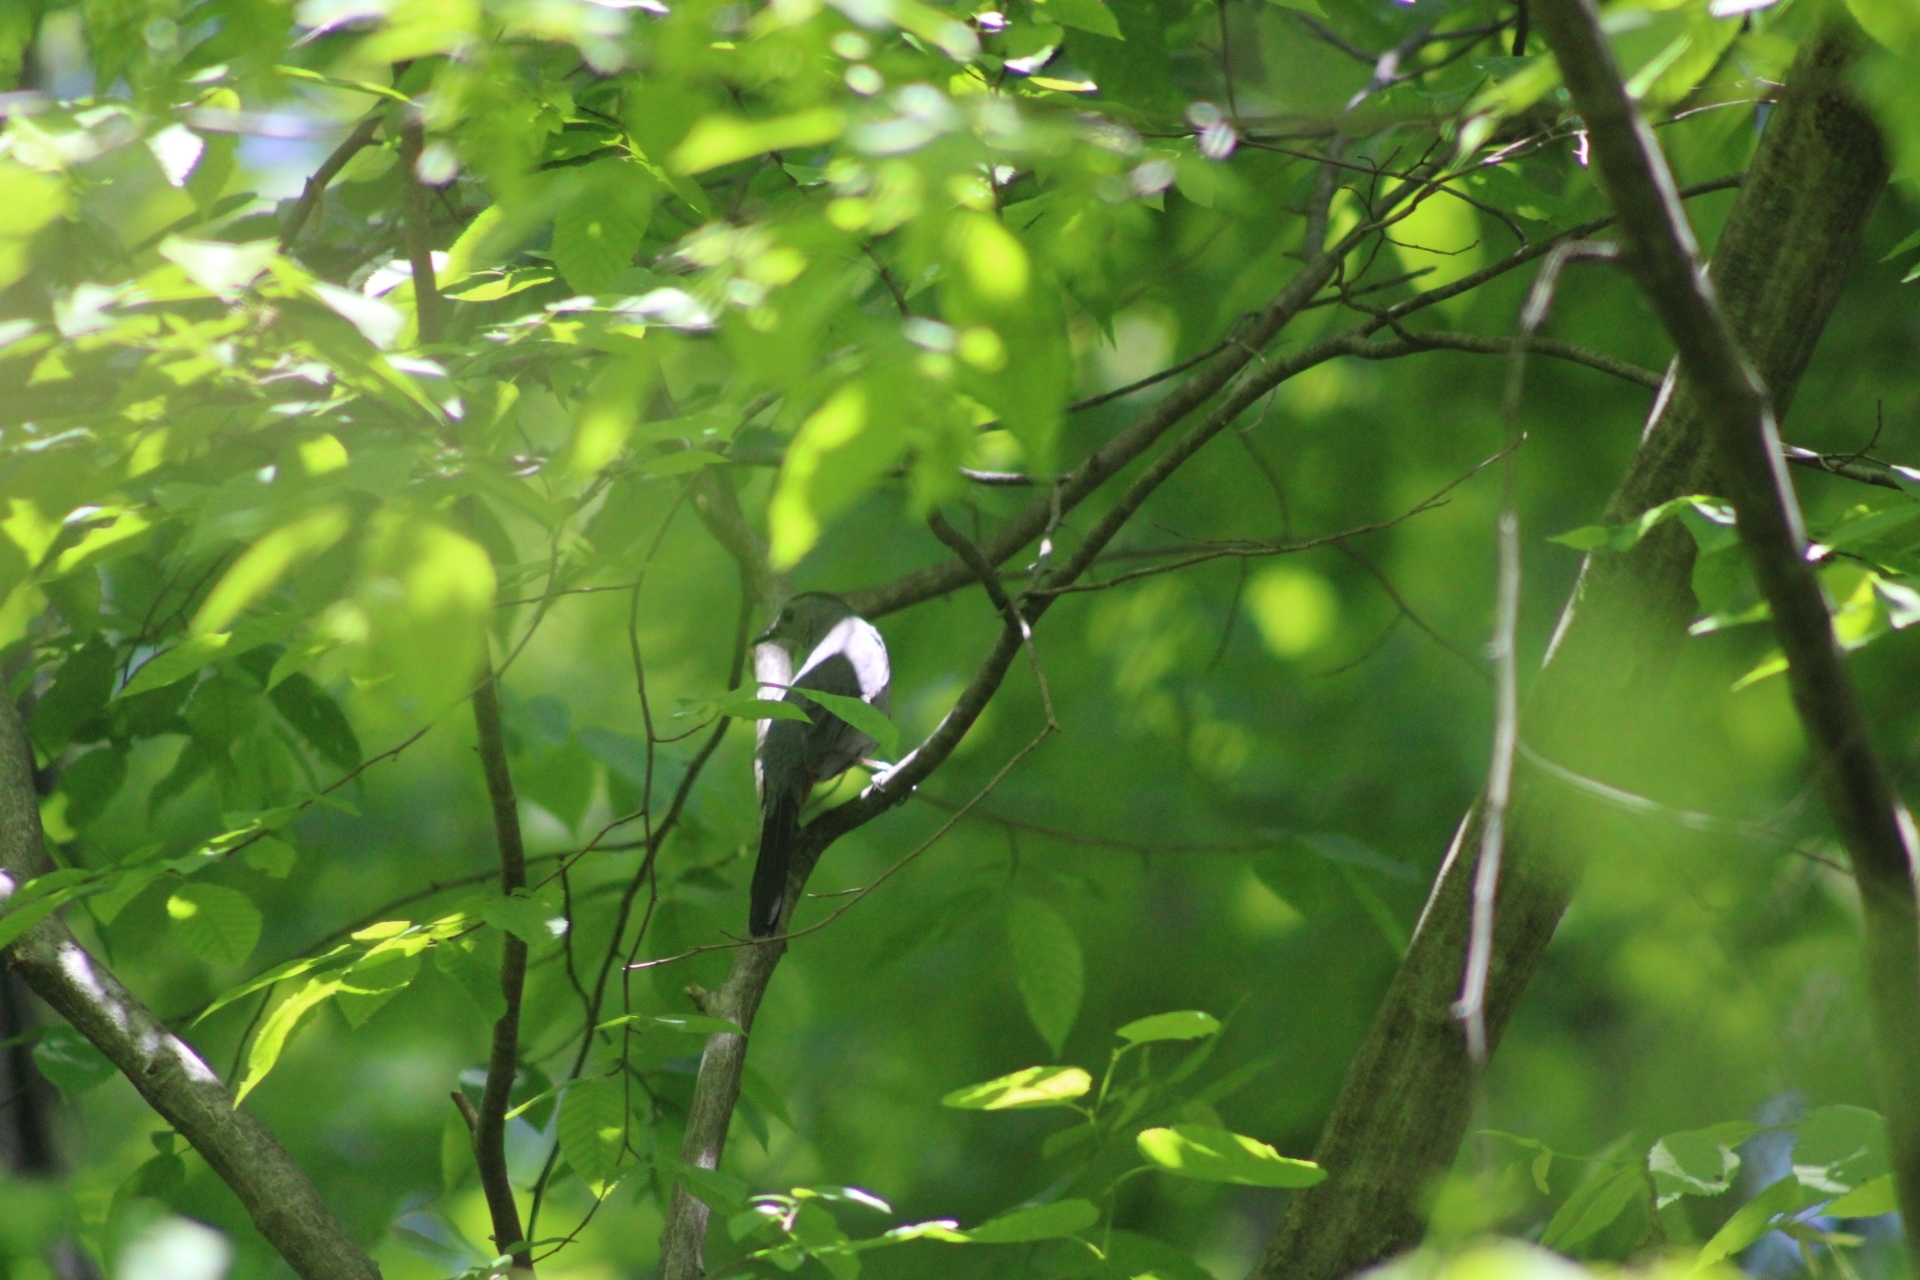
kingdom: Animalia
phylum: Chordata
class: Aves
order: Passeriformes
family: Mimidae
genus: Dumetella
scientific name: Dumetella carolinensis
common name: Gray catbird
